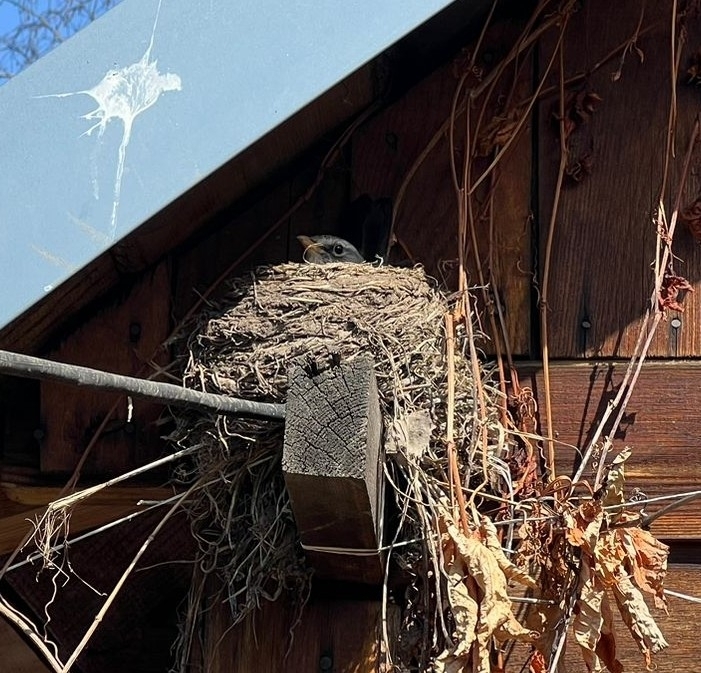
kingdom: Animalia
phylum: Chordata
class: Aves
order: Passeriformes
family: Turdidae
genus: Turdus
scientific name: Turdus pilaris
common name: Fieldfare
